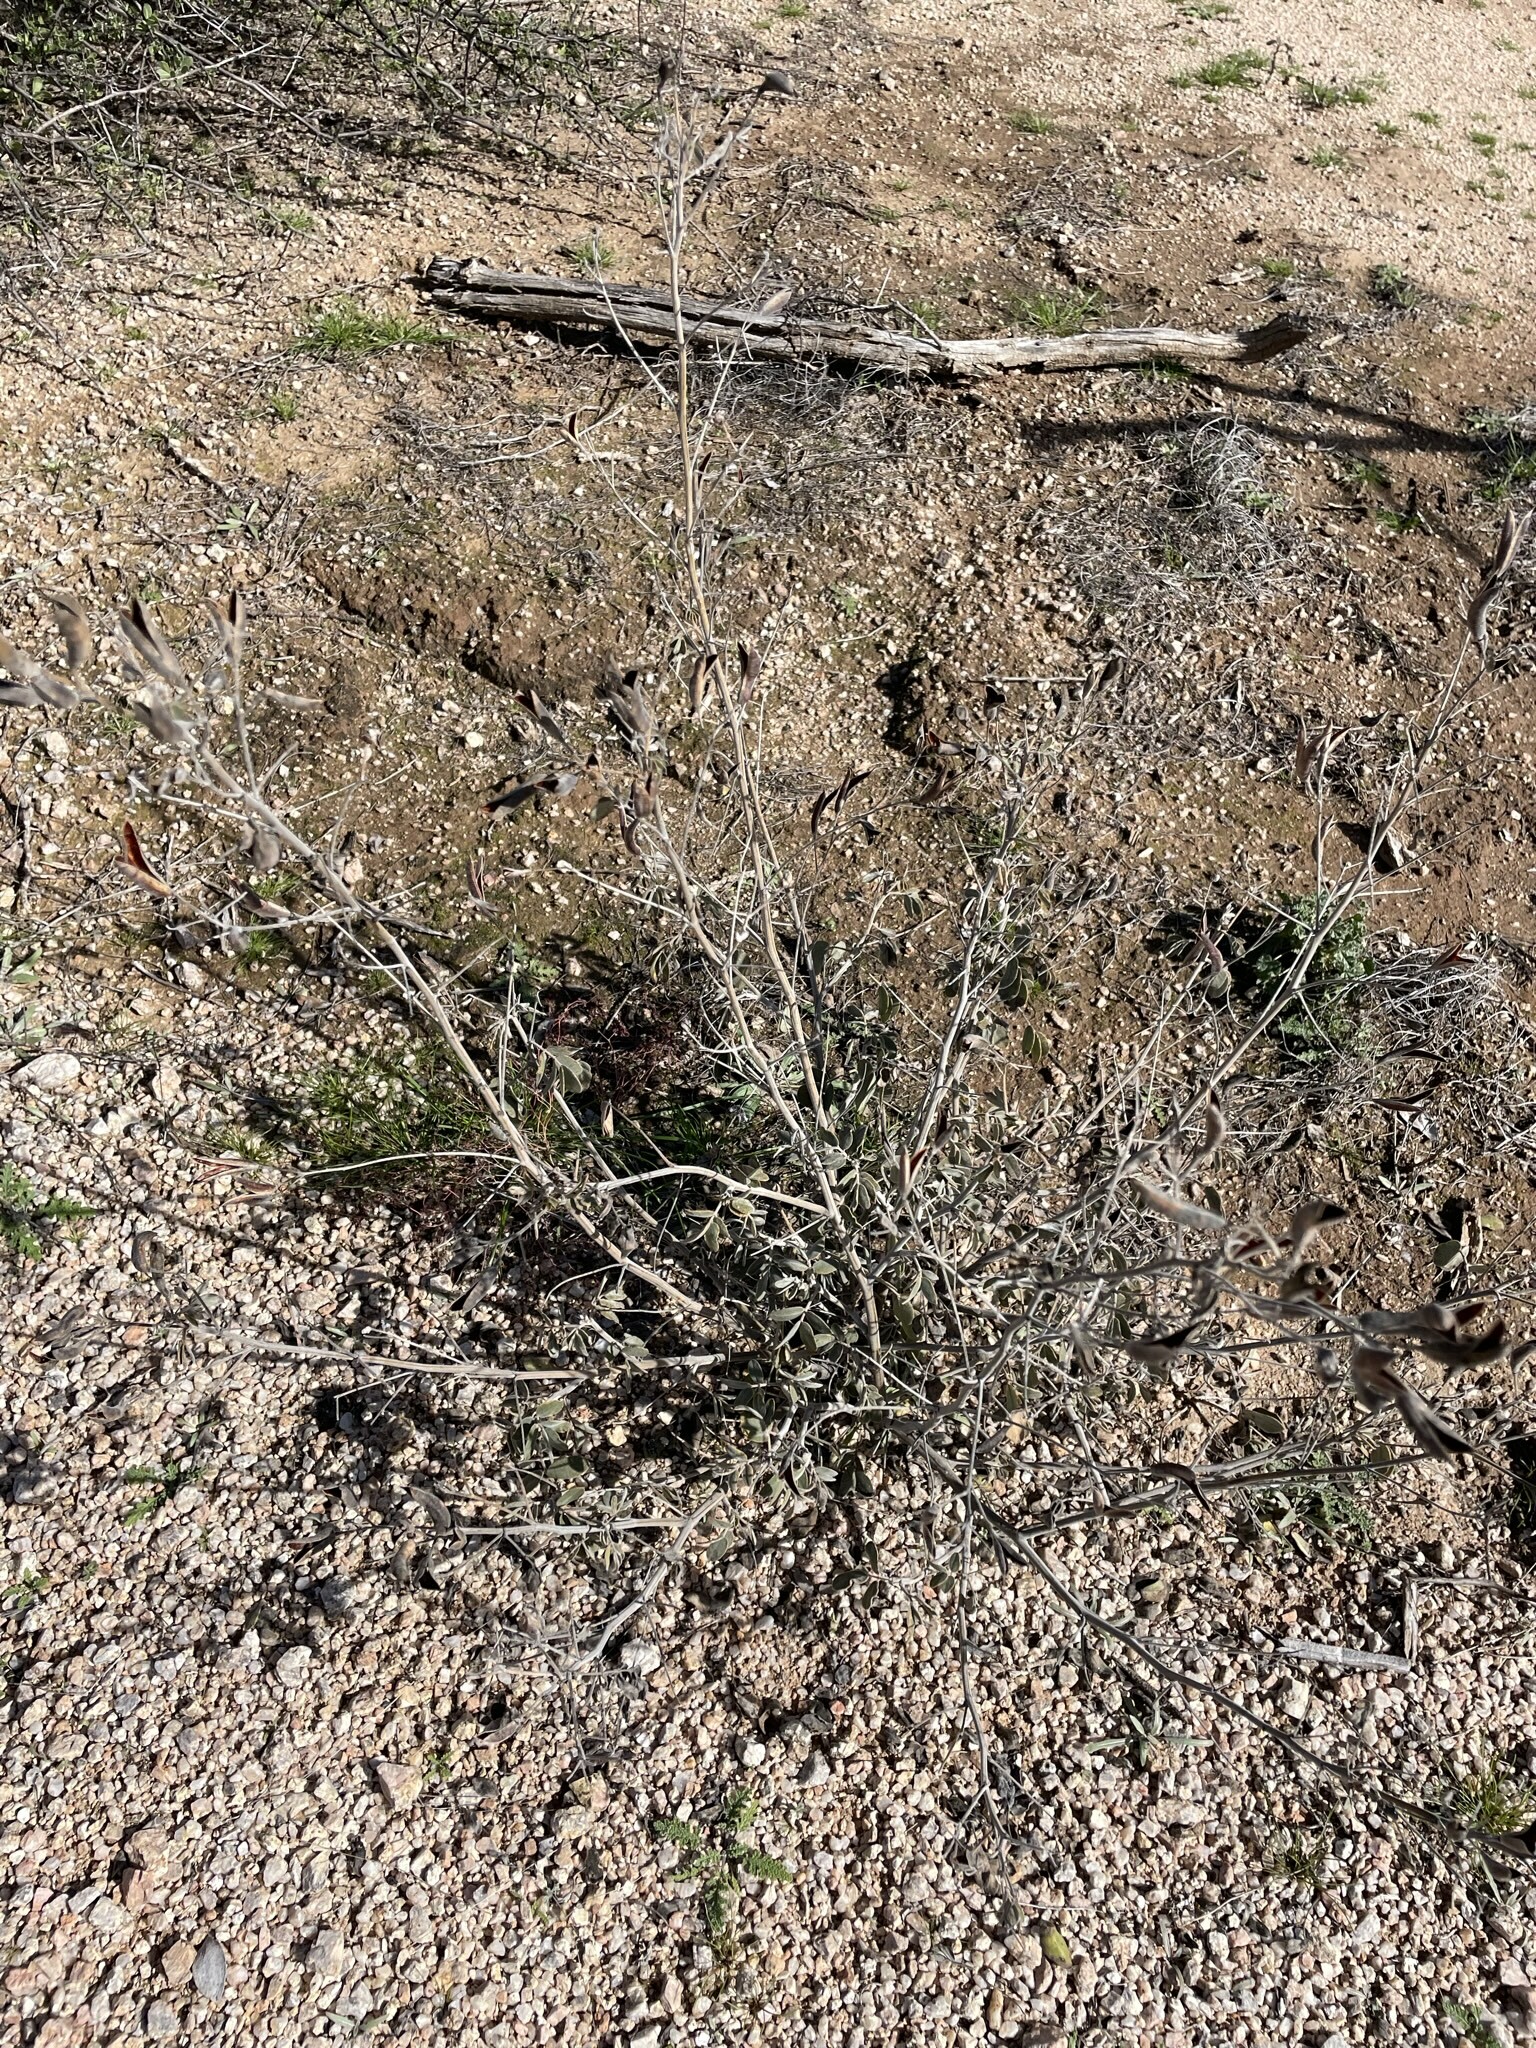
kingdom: Plantae
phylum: Tracheophyta
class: Magnoliopsida
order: Fabales
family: Fabaceae
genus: Senna
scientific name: Senna covesii
